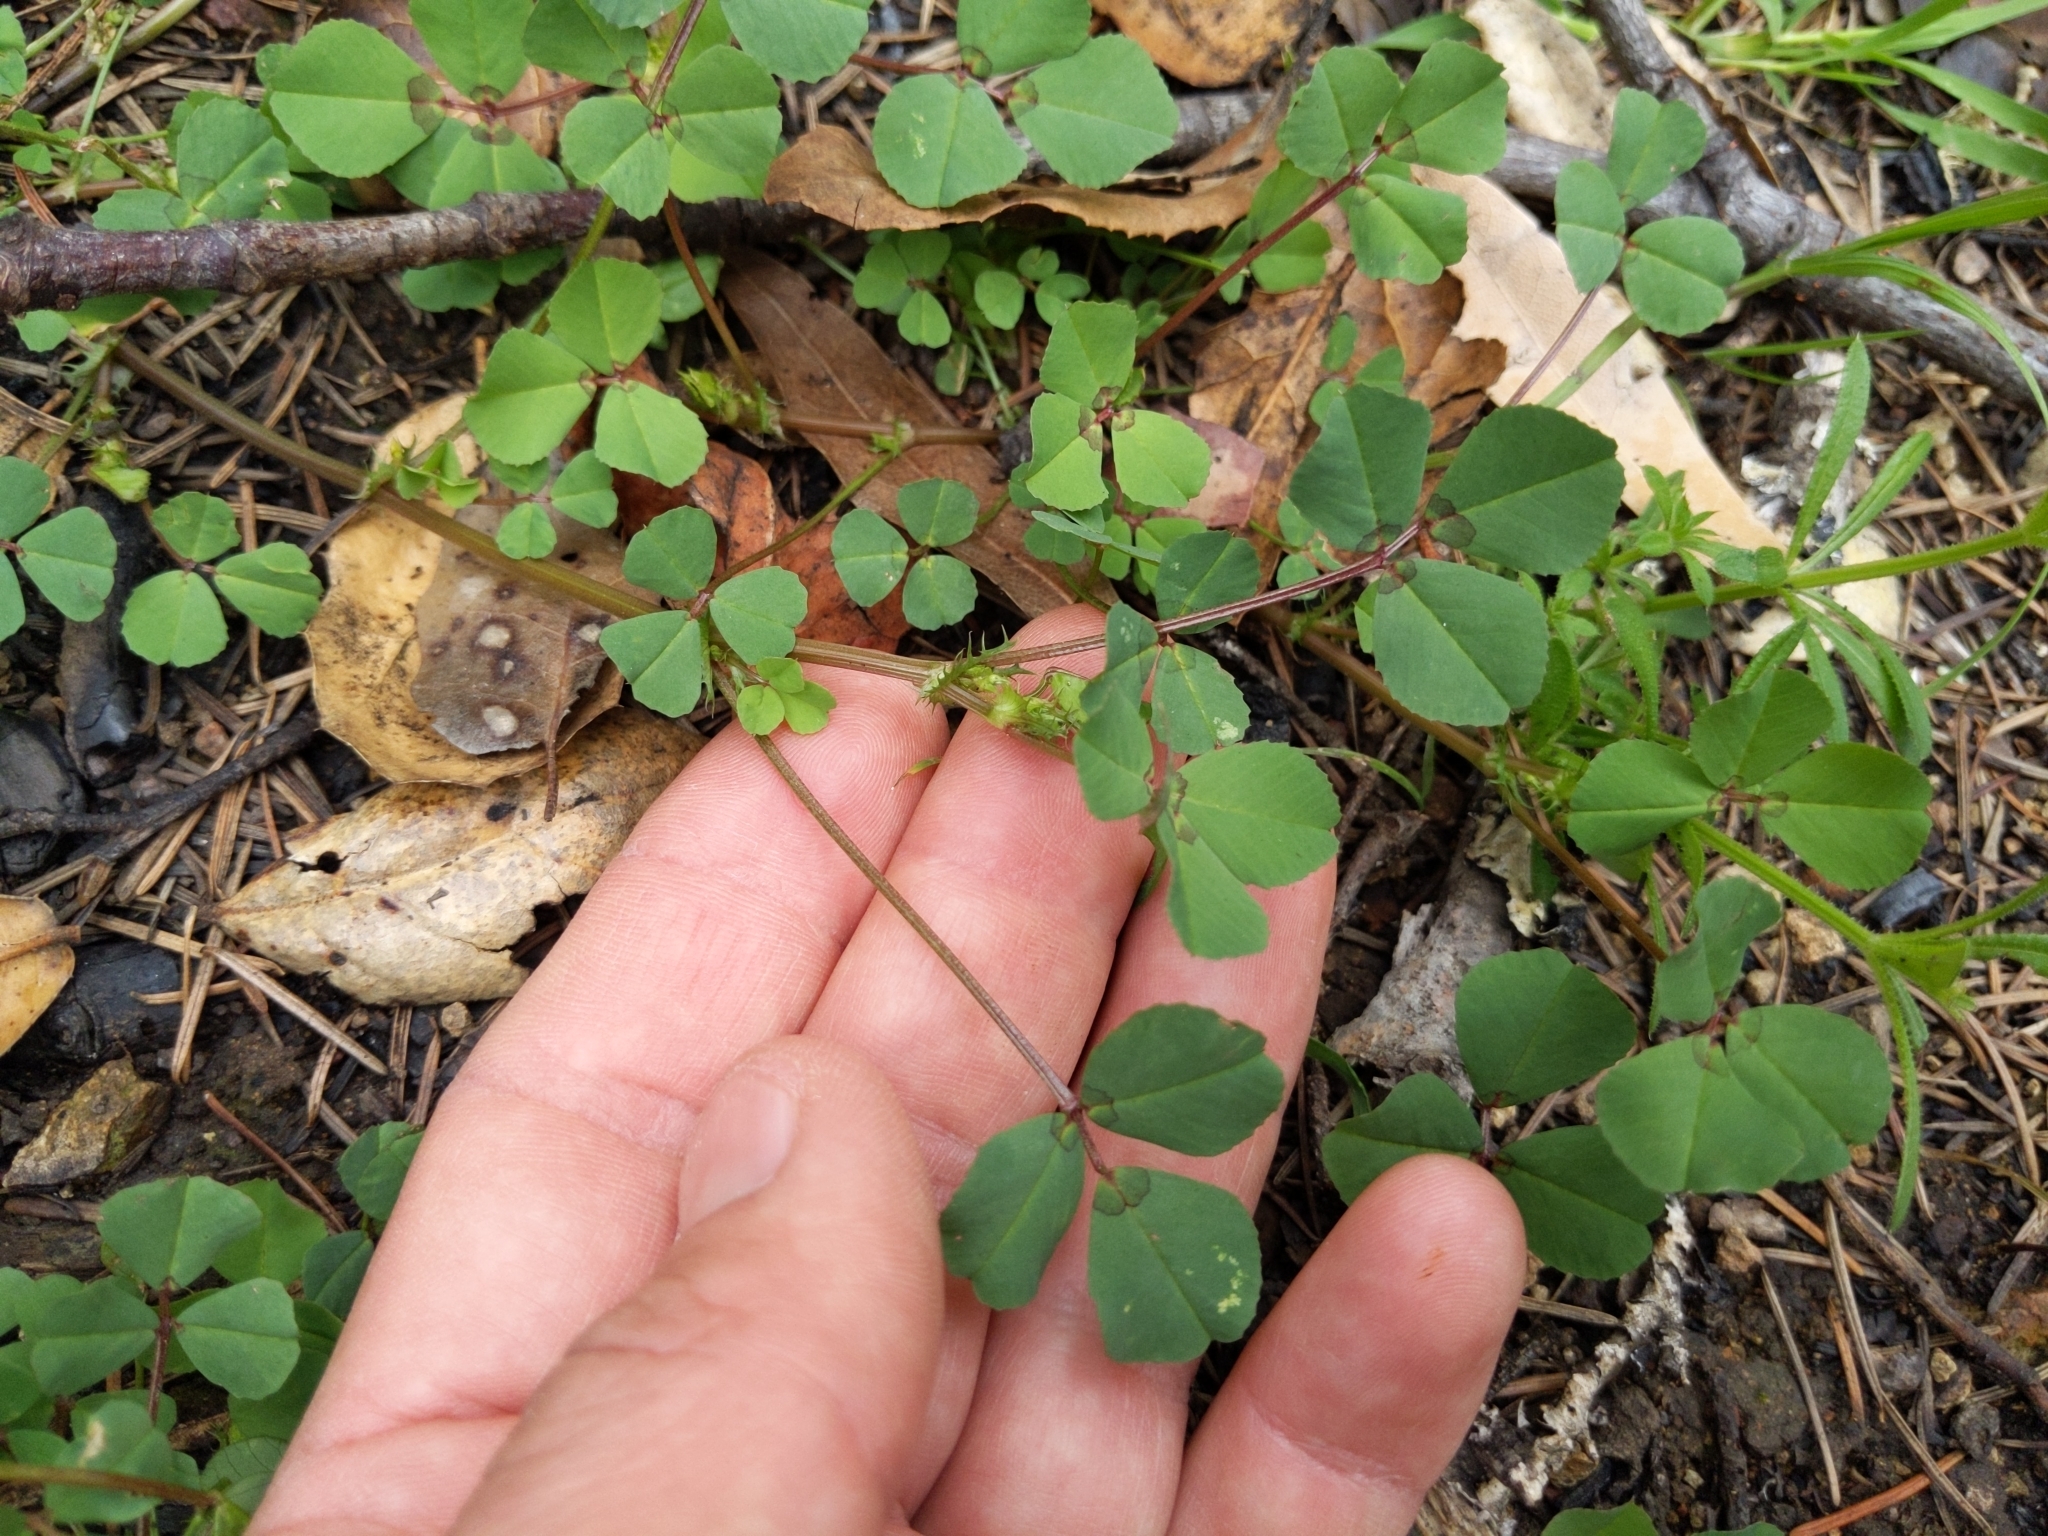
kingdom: Plantae
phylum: Tracheophyta
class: Magnoliopsida
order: Fabales
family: Fabaceae
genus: Medicago
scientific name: Medicago polymorpha
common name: Burclover
